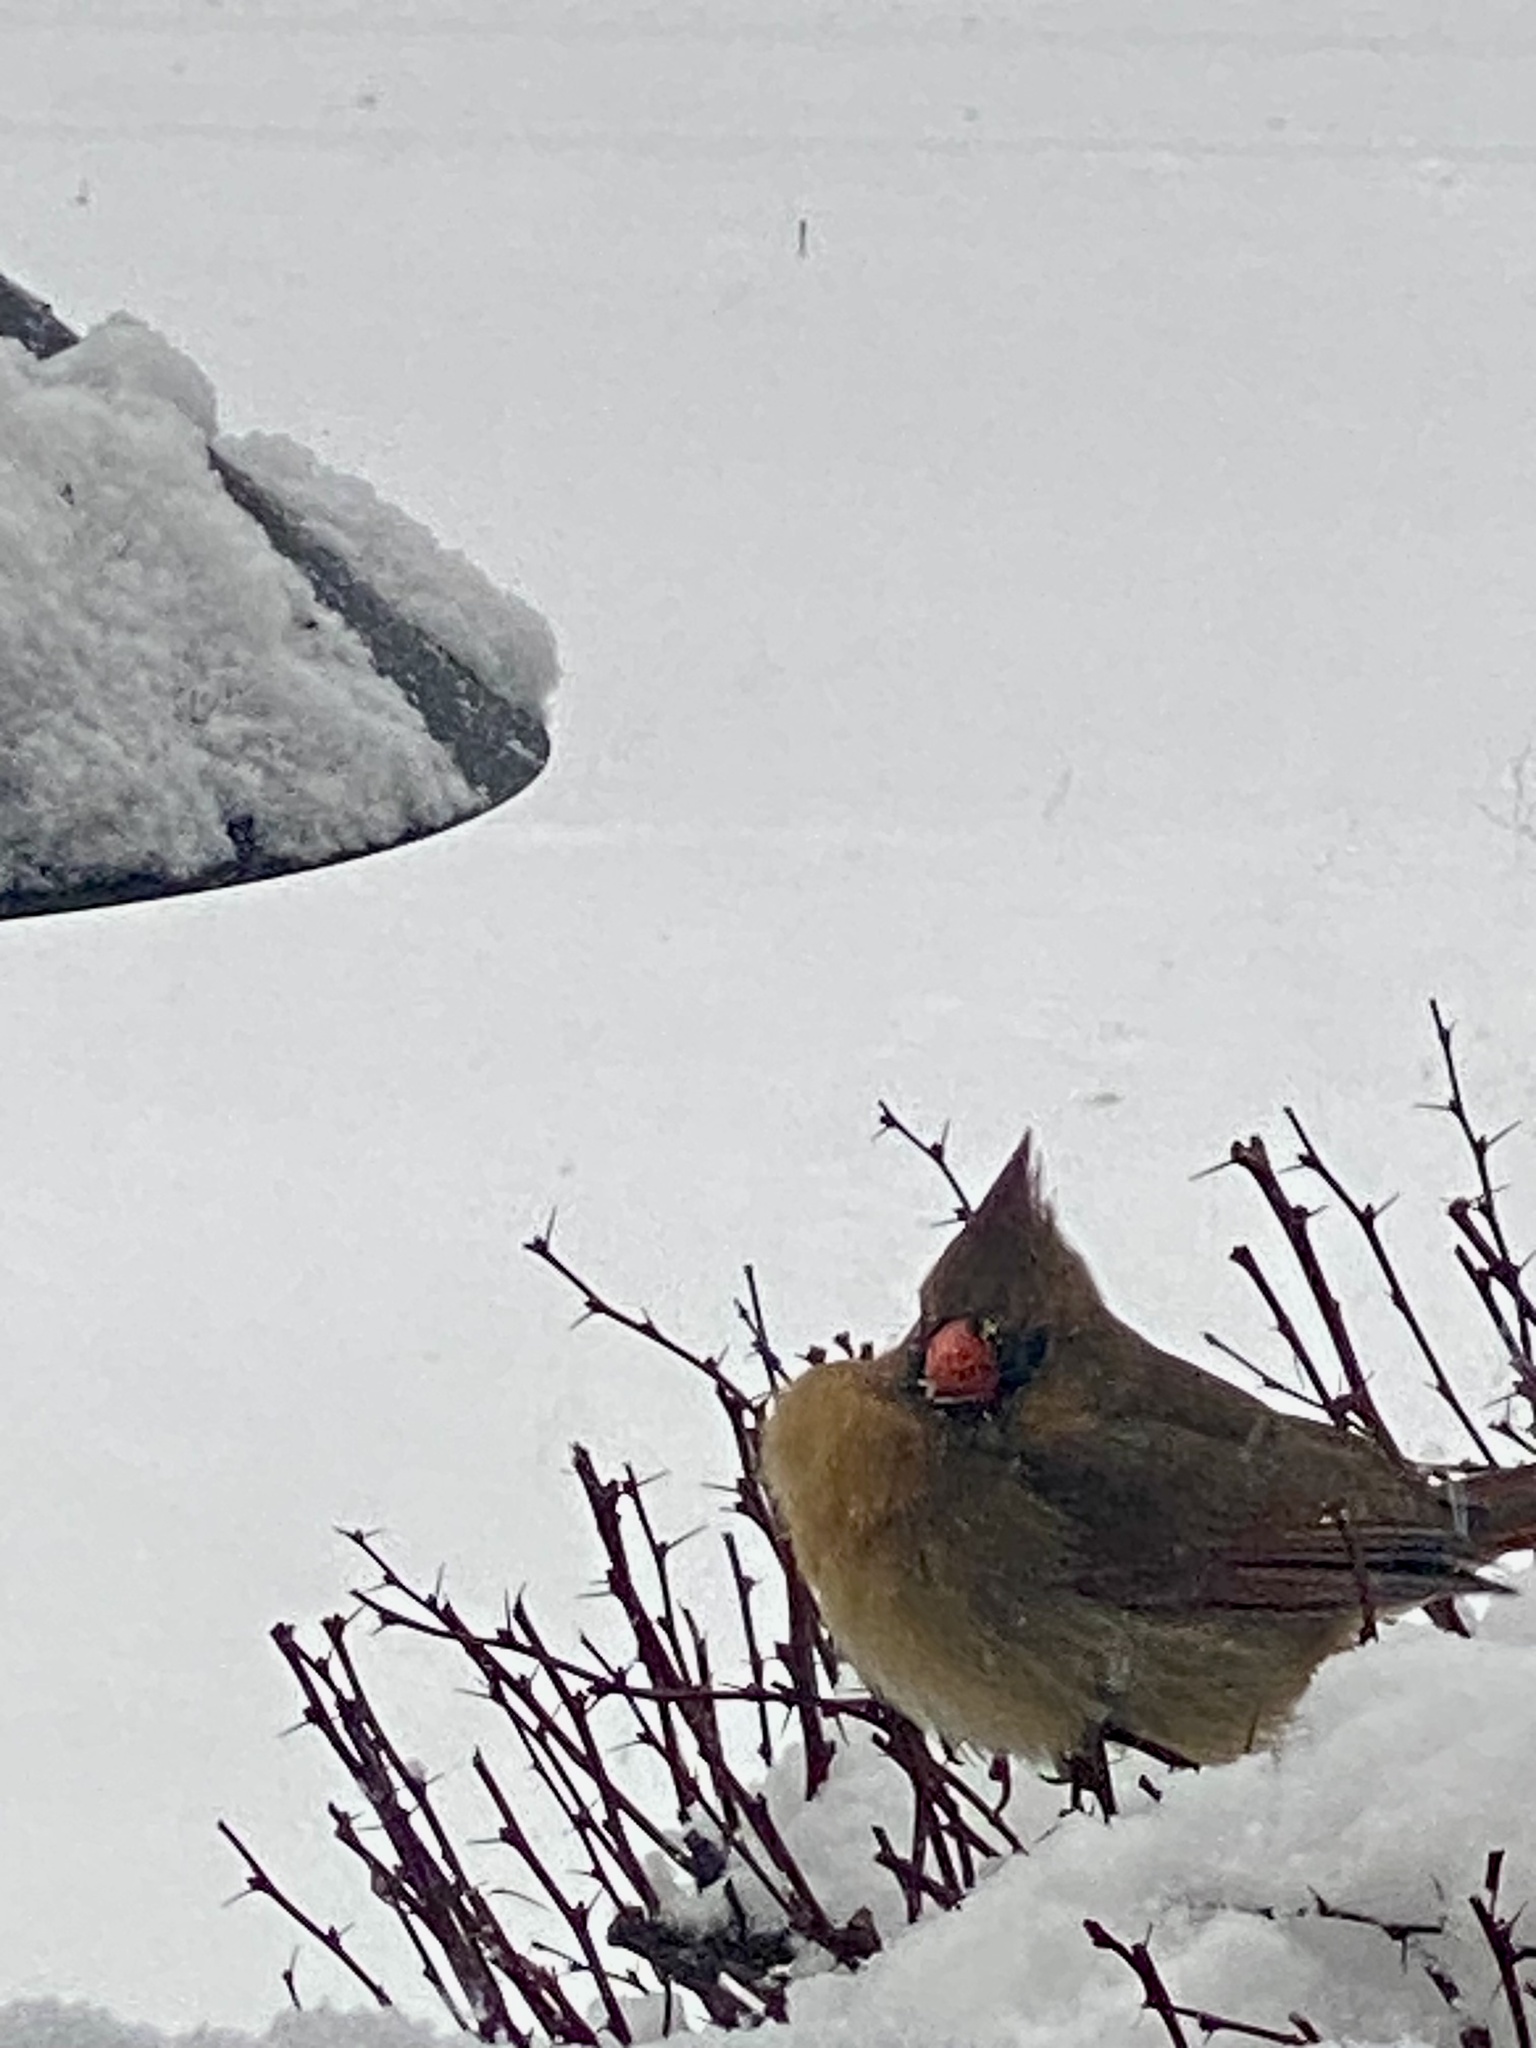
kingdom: Animalia
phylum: Chordata
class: Aves
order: Passeriformes
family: Cardinalidae
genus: Cardinalis
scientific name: Cardinalis cardinalis
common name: Northern cardinal
